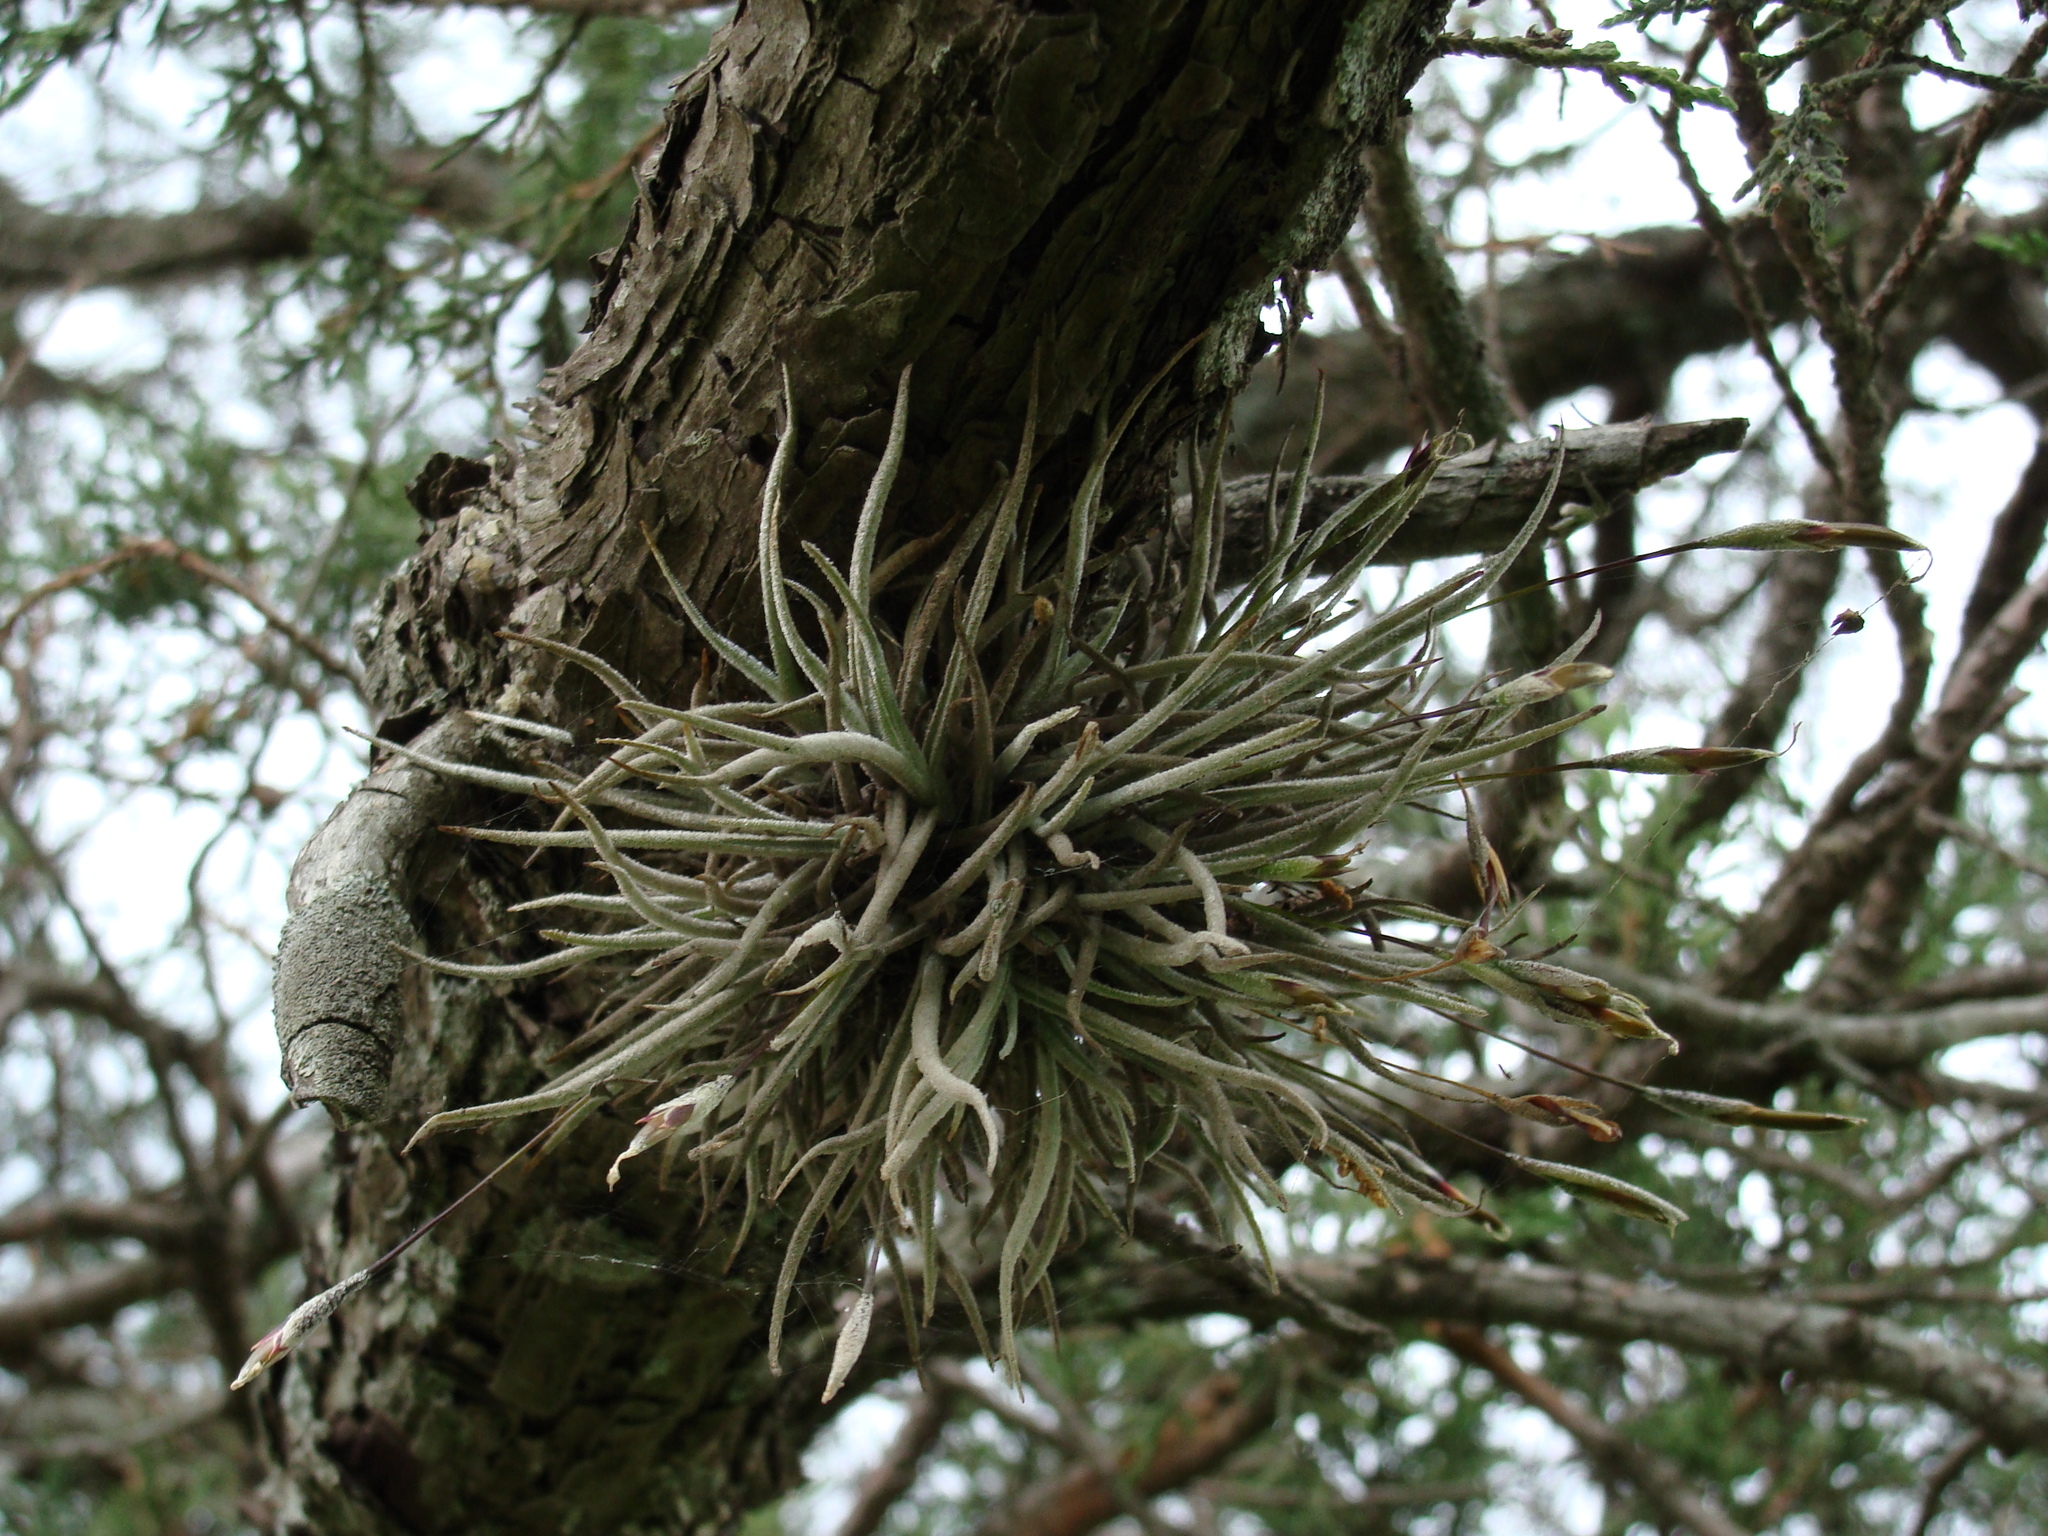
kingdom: Plantae
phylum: Tracheophyta
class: Liliopsida
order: Poales
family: Bromeliaceae
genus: Tillandsia
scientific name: Tillandsia recurvata
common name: Small ballmoss
